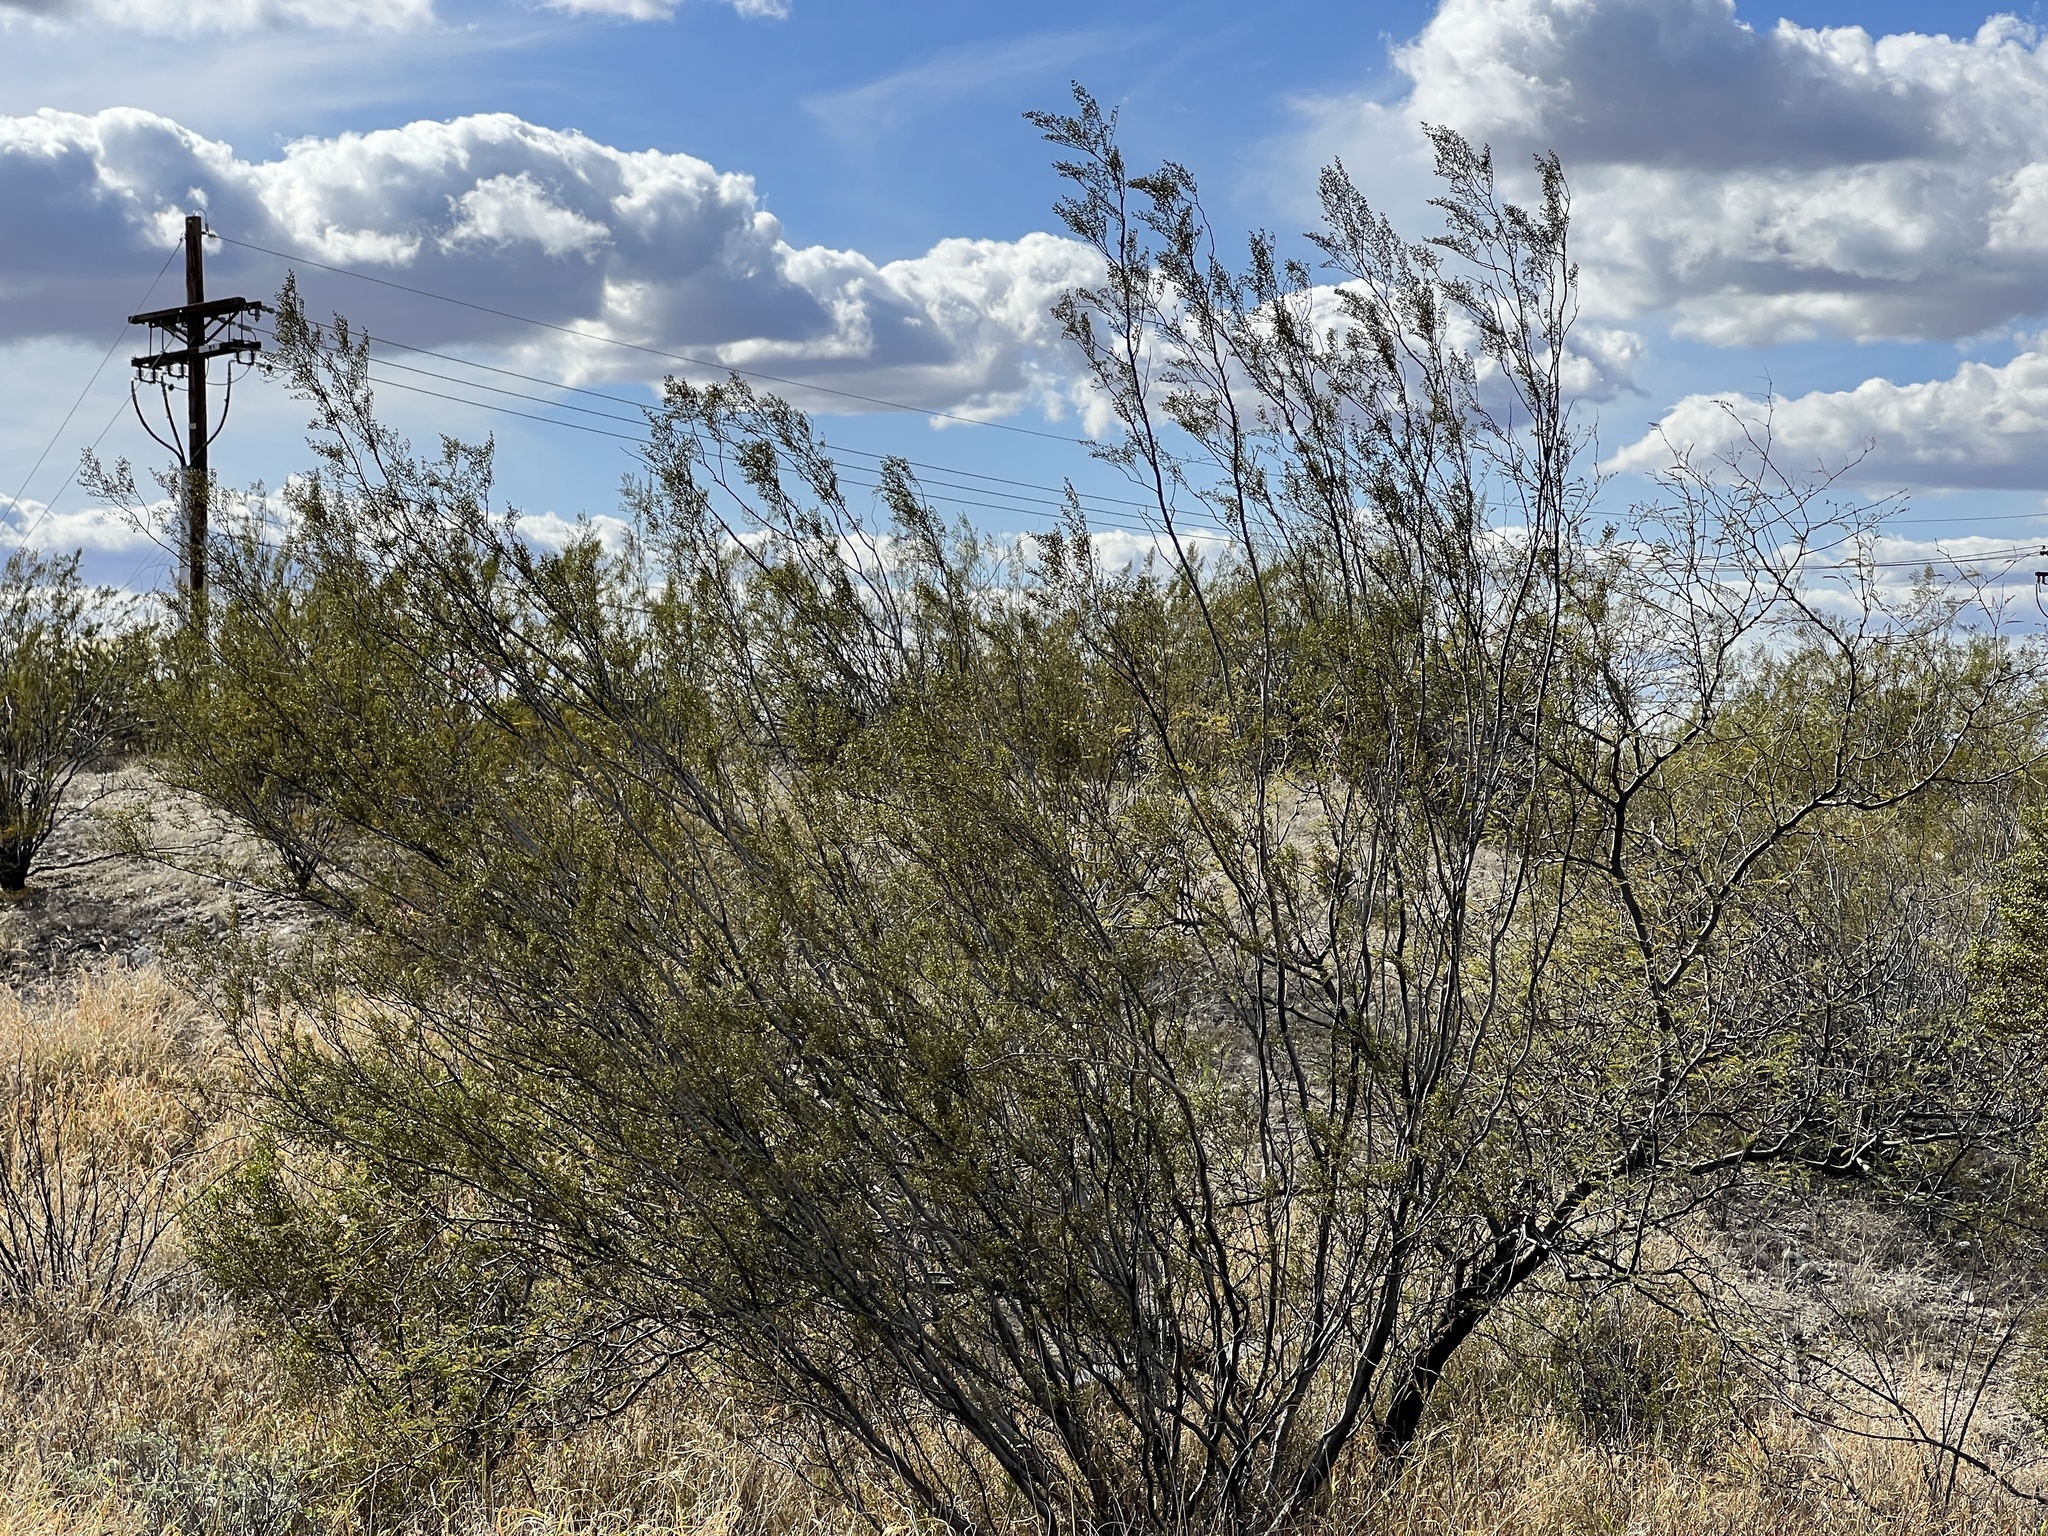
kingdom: Plantae
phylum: Tracheophyta
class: Magnoliopsida
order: Zygophyllales
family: Zygophyllaceae
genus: Larrea
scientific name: Larrea tridentata
